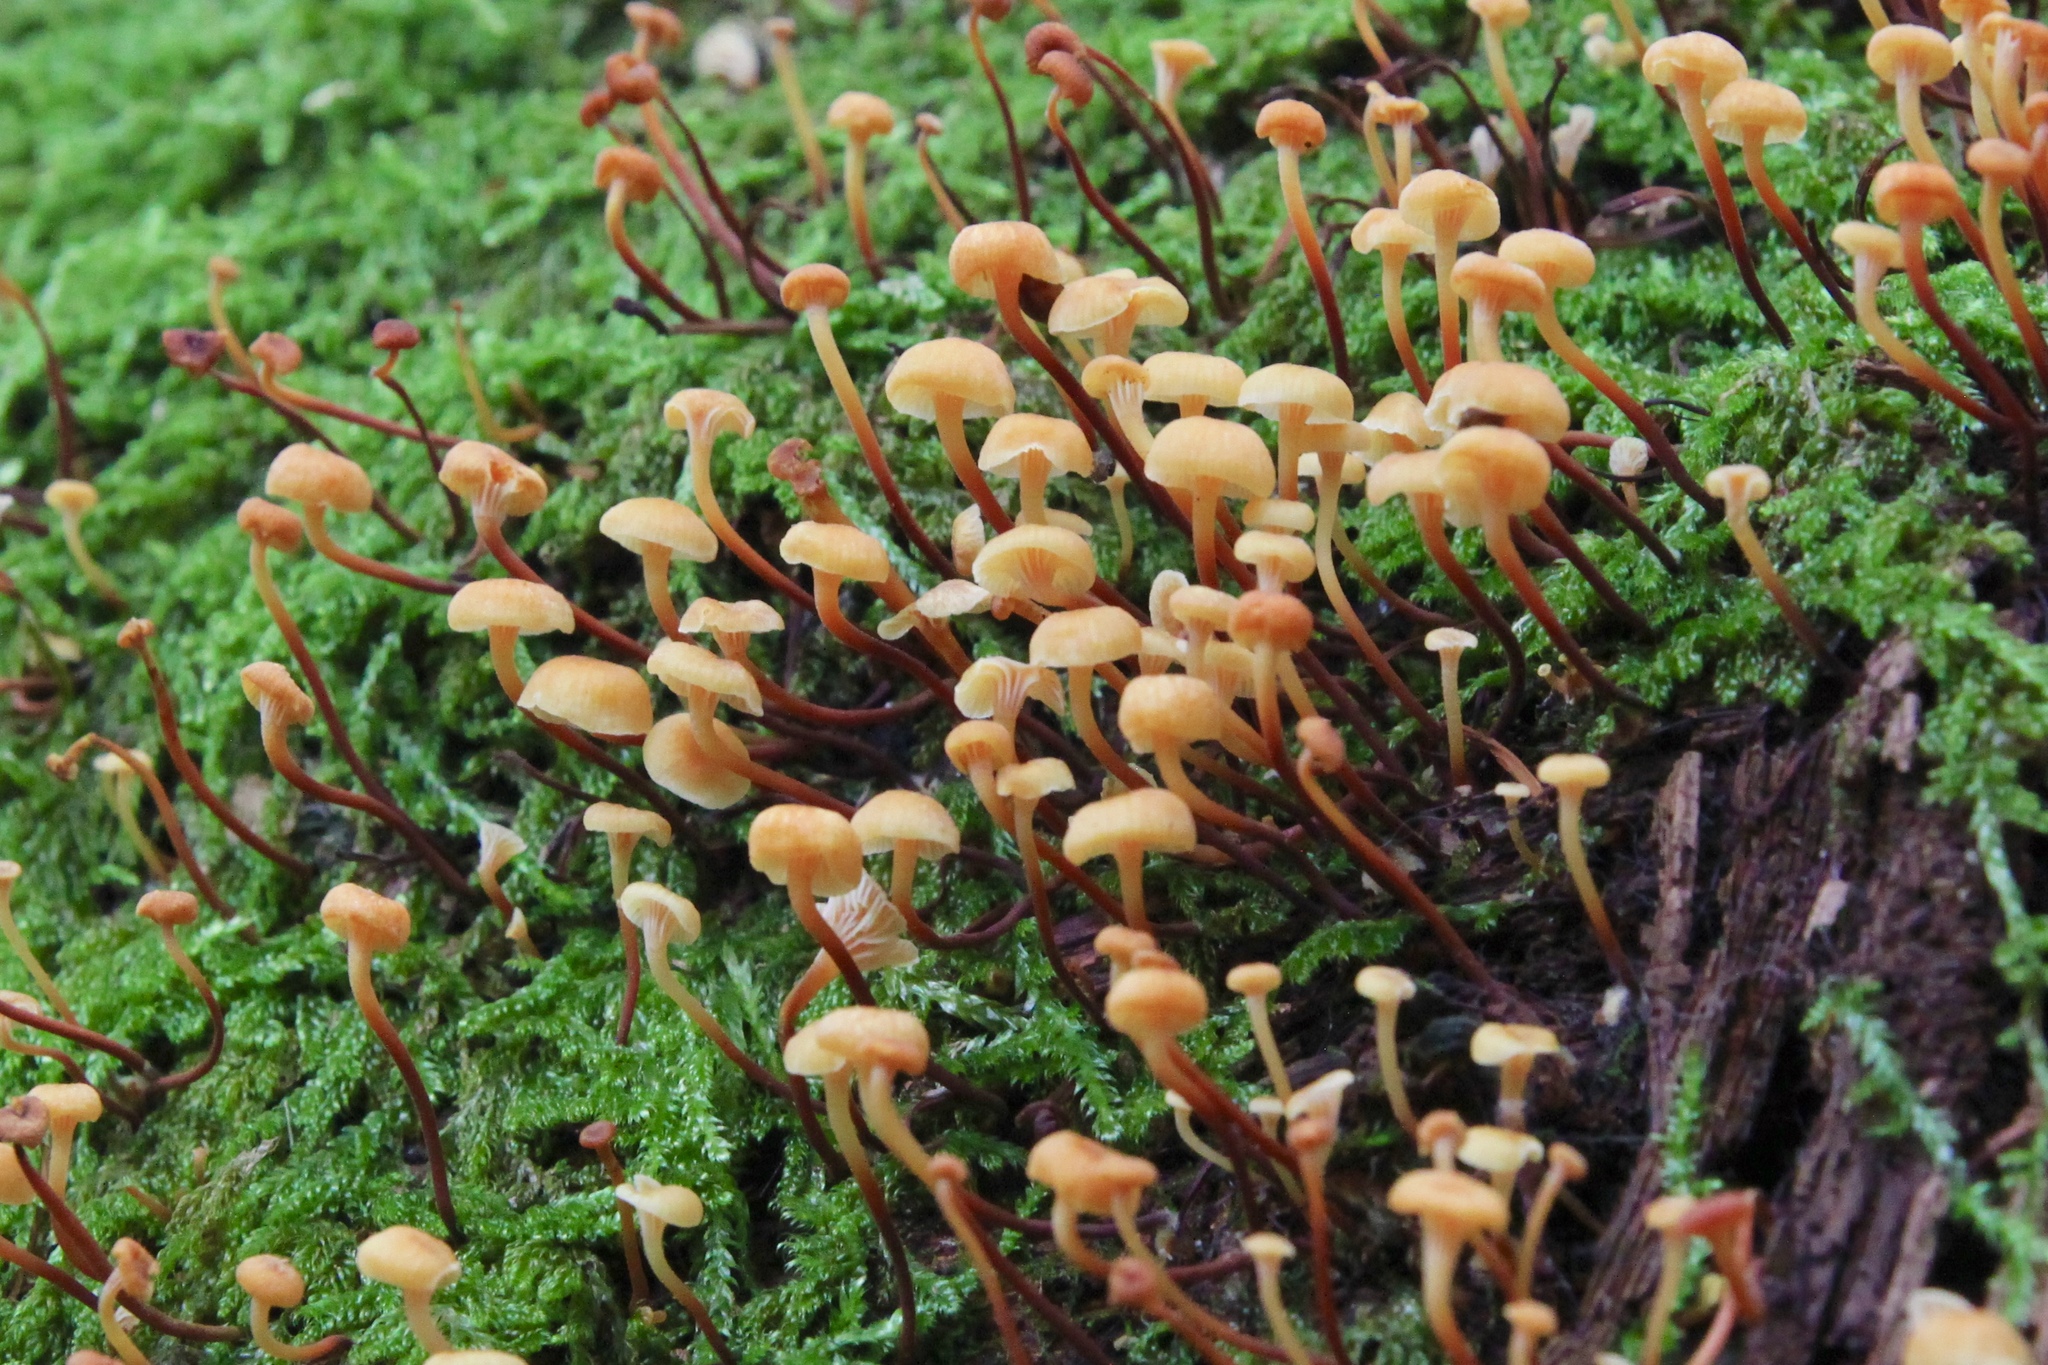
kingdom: Fungi
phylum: Basidiomycota
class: Agaricomycetes
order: Agaricales
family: Mycenaceae
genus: Xeromphalina
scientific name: Xeromphalina campanella
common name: Pinewood gingertail
